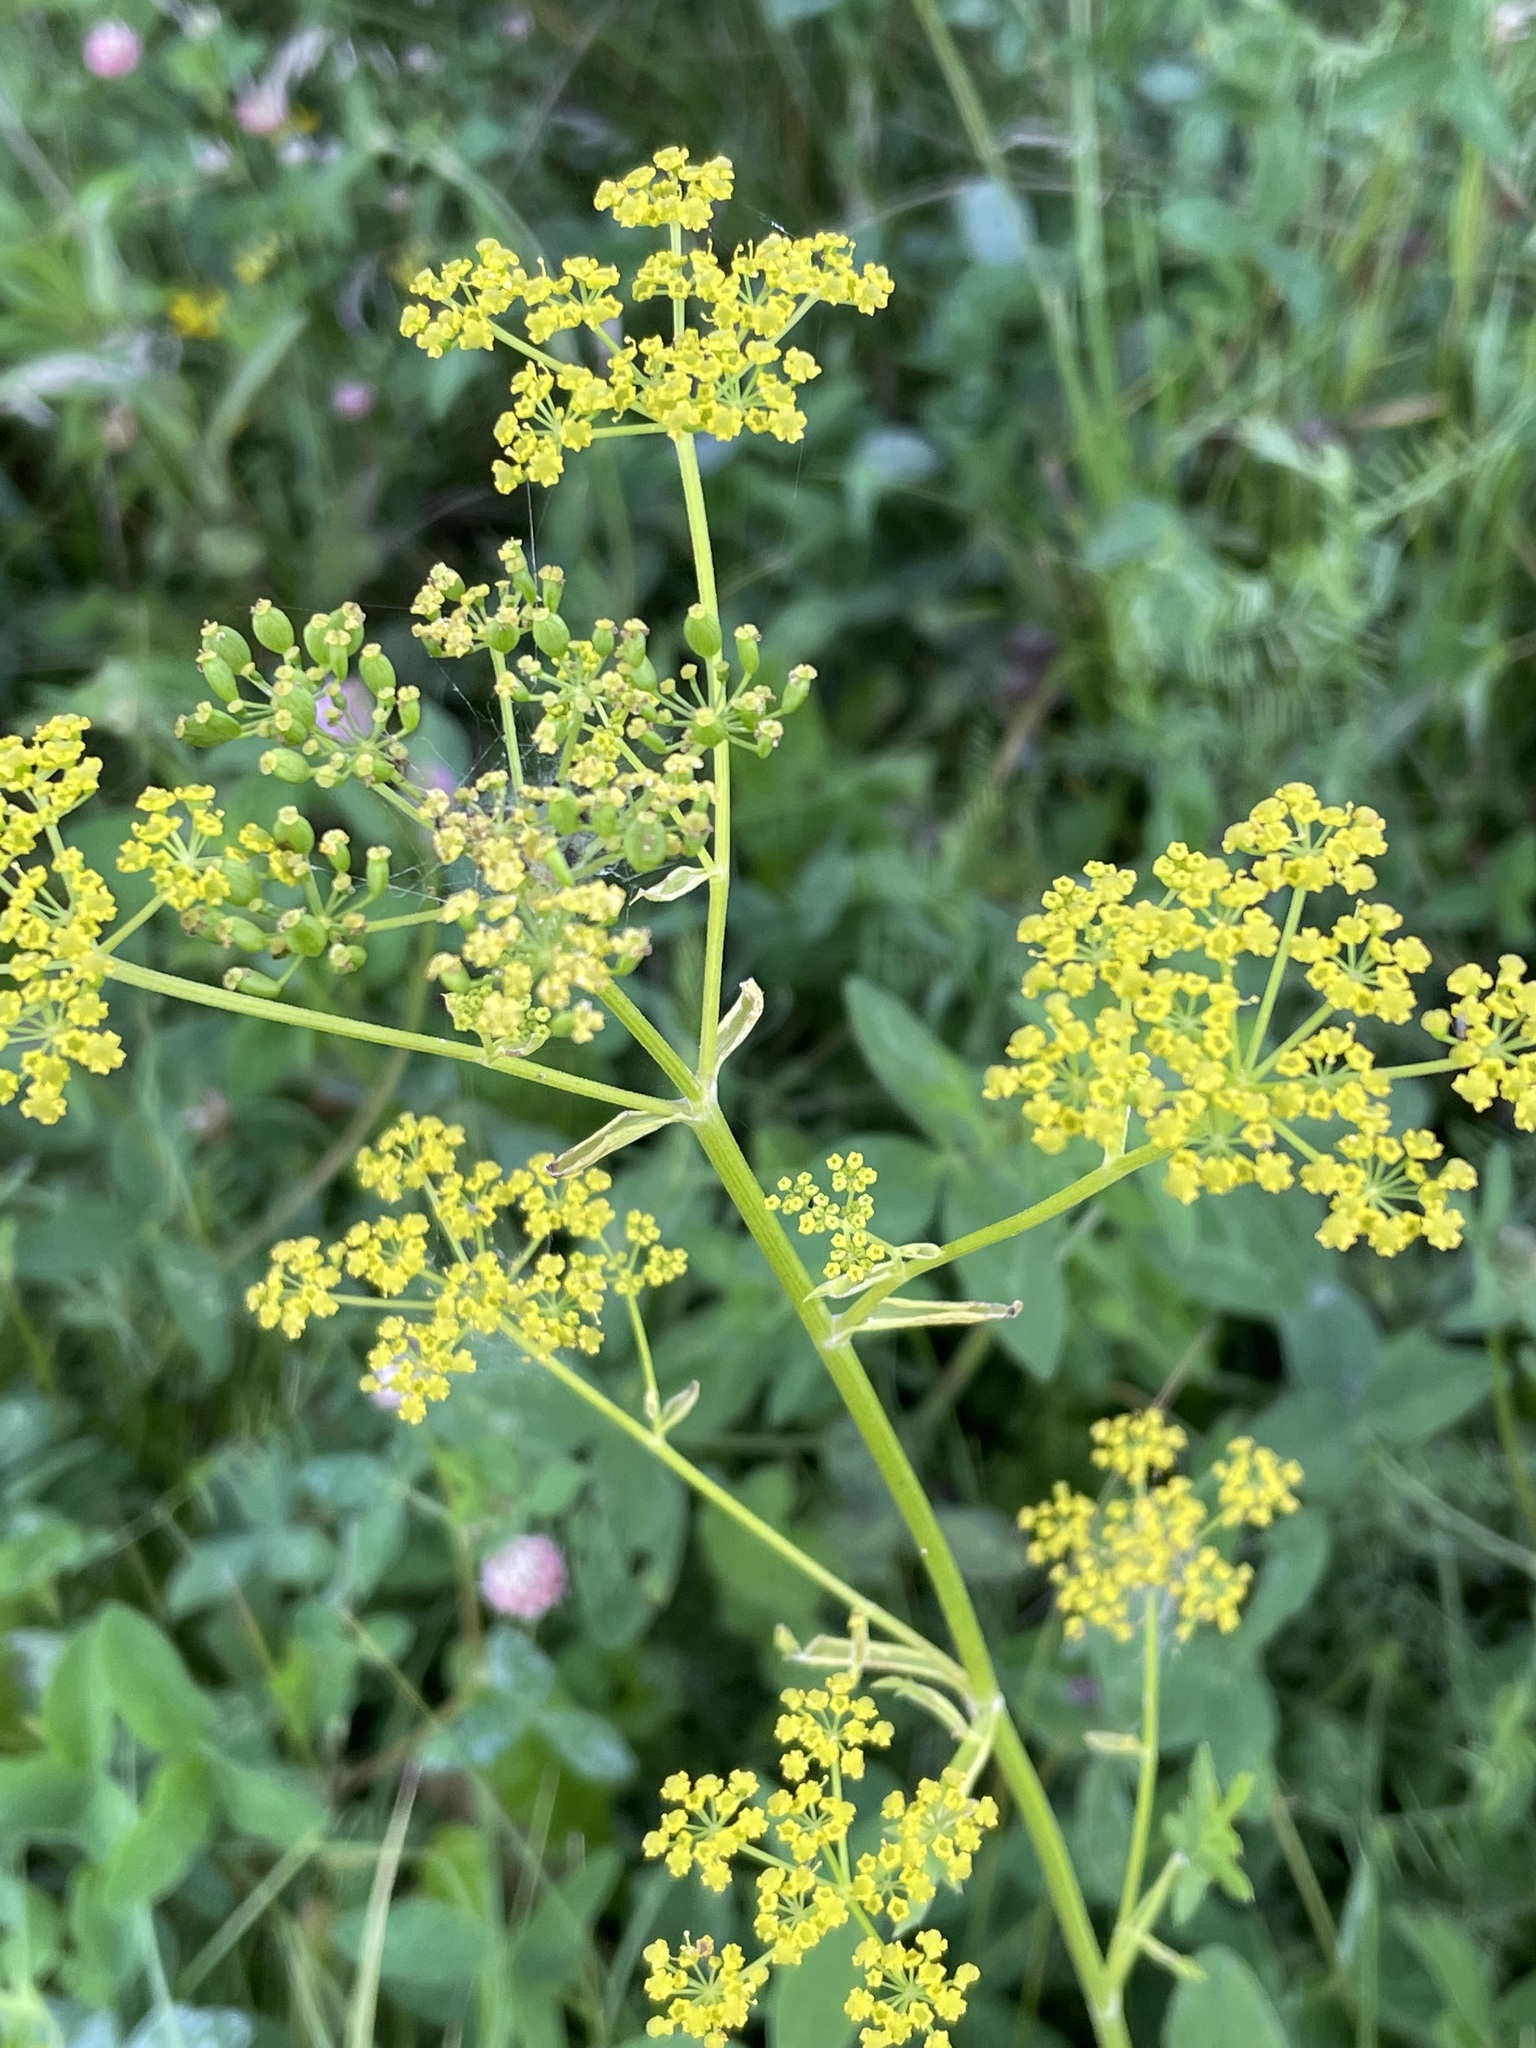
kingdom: Plantae
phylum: Tracheophyta
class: Magnoliopsida
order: Apiales
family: Apiaceae
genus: Pastinaca
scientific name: Pastinaca sativa
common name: Wild parsnip
